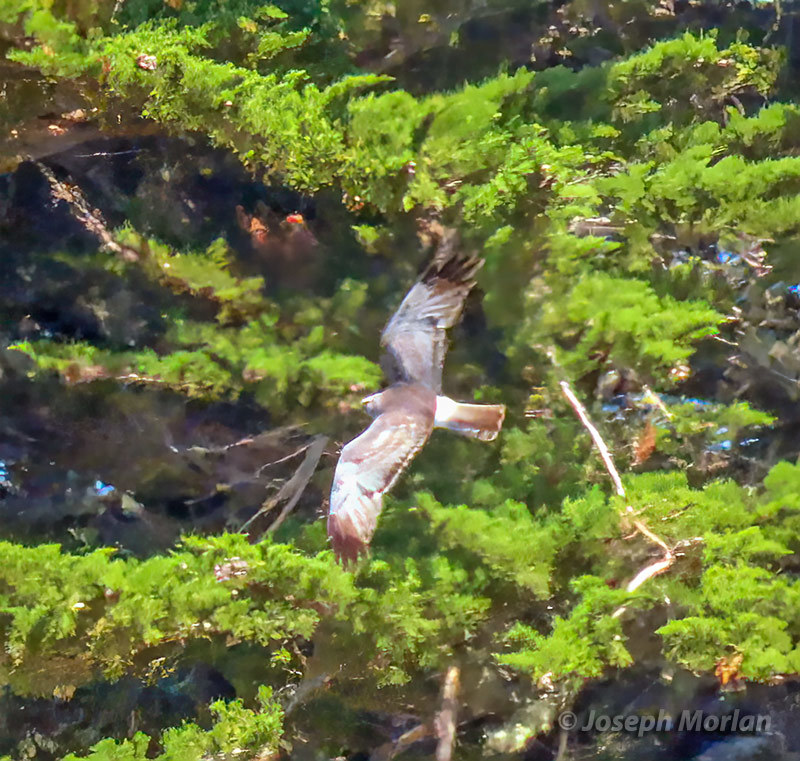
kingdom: Animalia
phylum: Chordata
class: Aves
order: Accipitriformes
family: Accipitridae
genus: Circus
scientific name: Circus cyaneus
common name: Hen harrier
